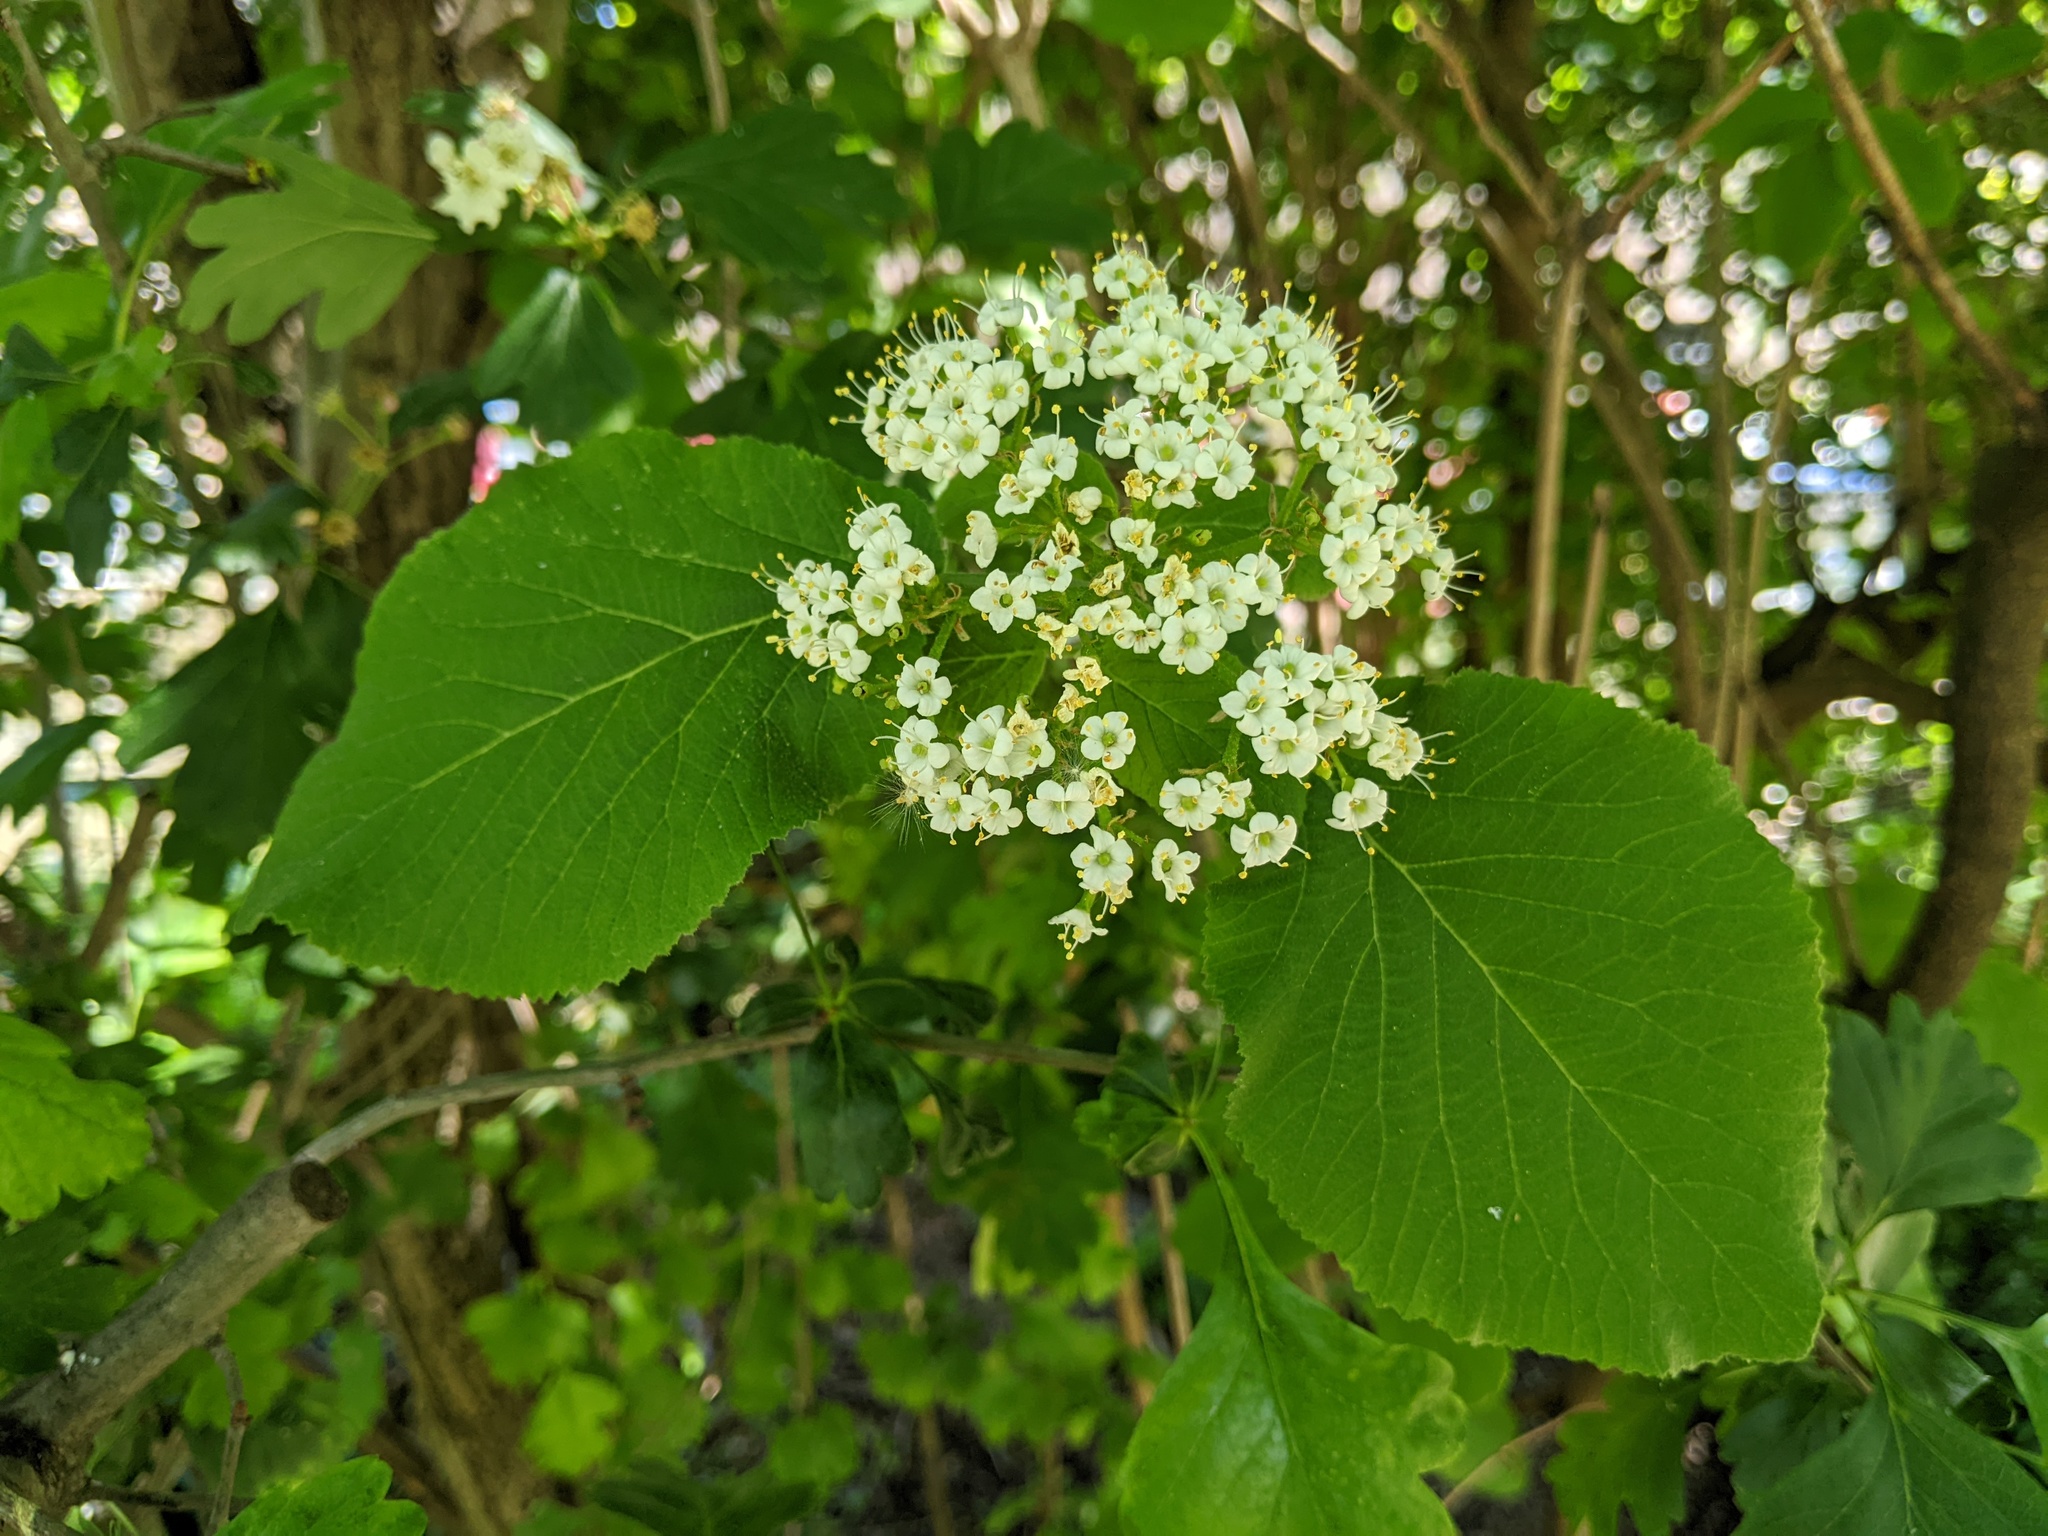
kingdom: Plantae
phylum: Tracheophyta
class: Magnoliopsida
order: Dipsacales
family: Viburnaceae
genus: Viburnum
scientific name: Viburnum lantana
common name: Wayfaring tree
